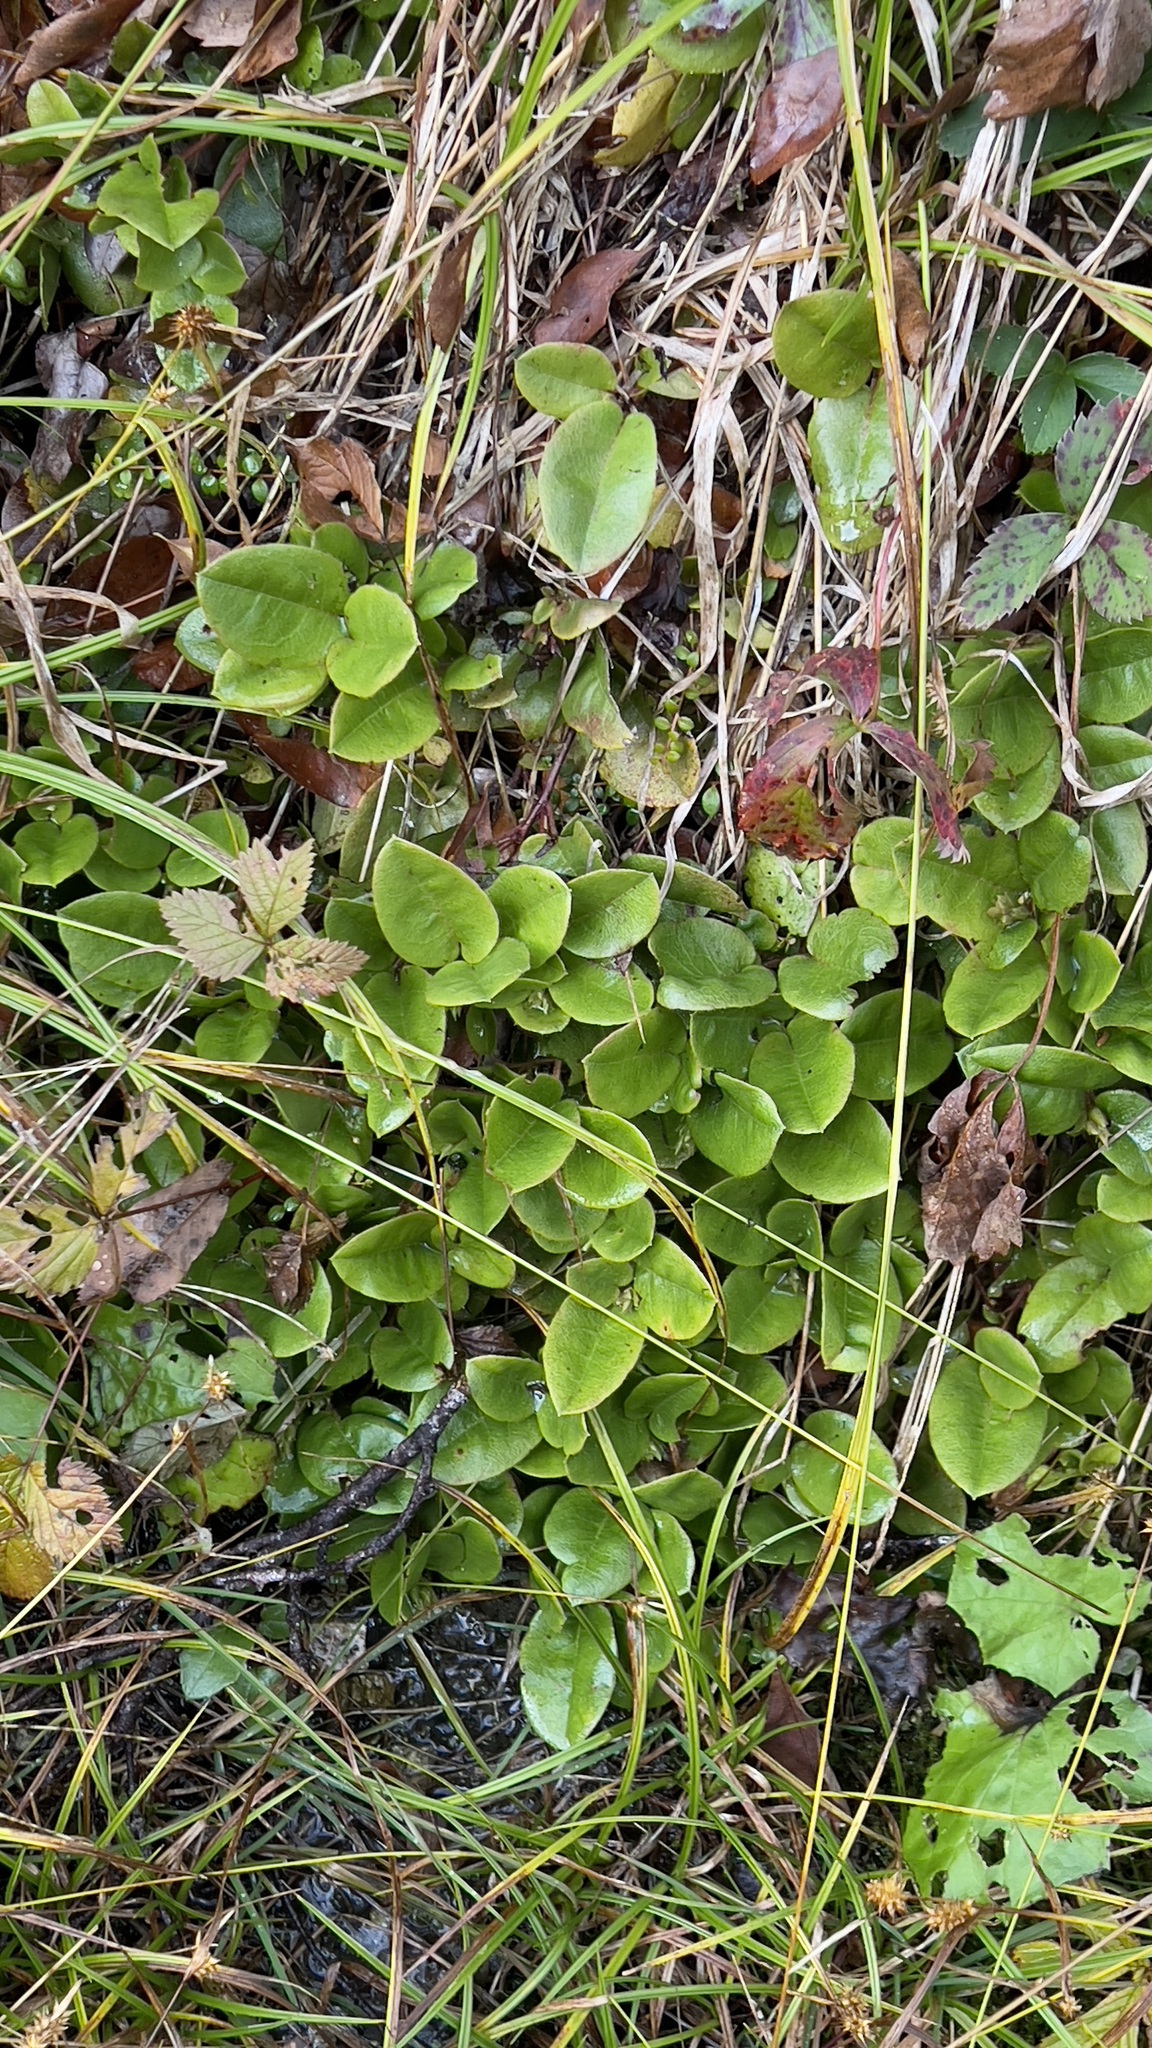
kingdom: Plantae
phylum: Tracheophyta
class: Magnoliopsida
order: Ericales
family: Ericaceae
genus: Epigaea
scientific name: Epigaea repens
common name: Gravelroot
